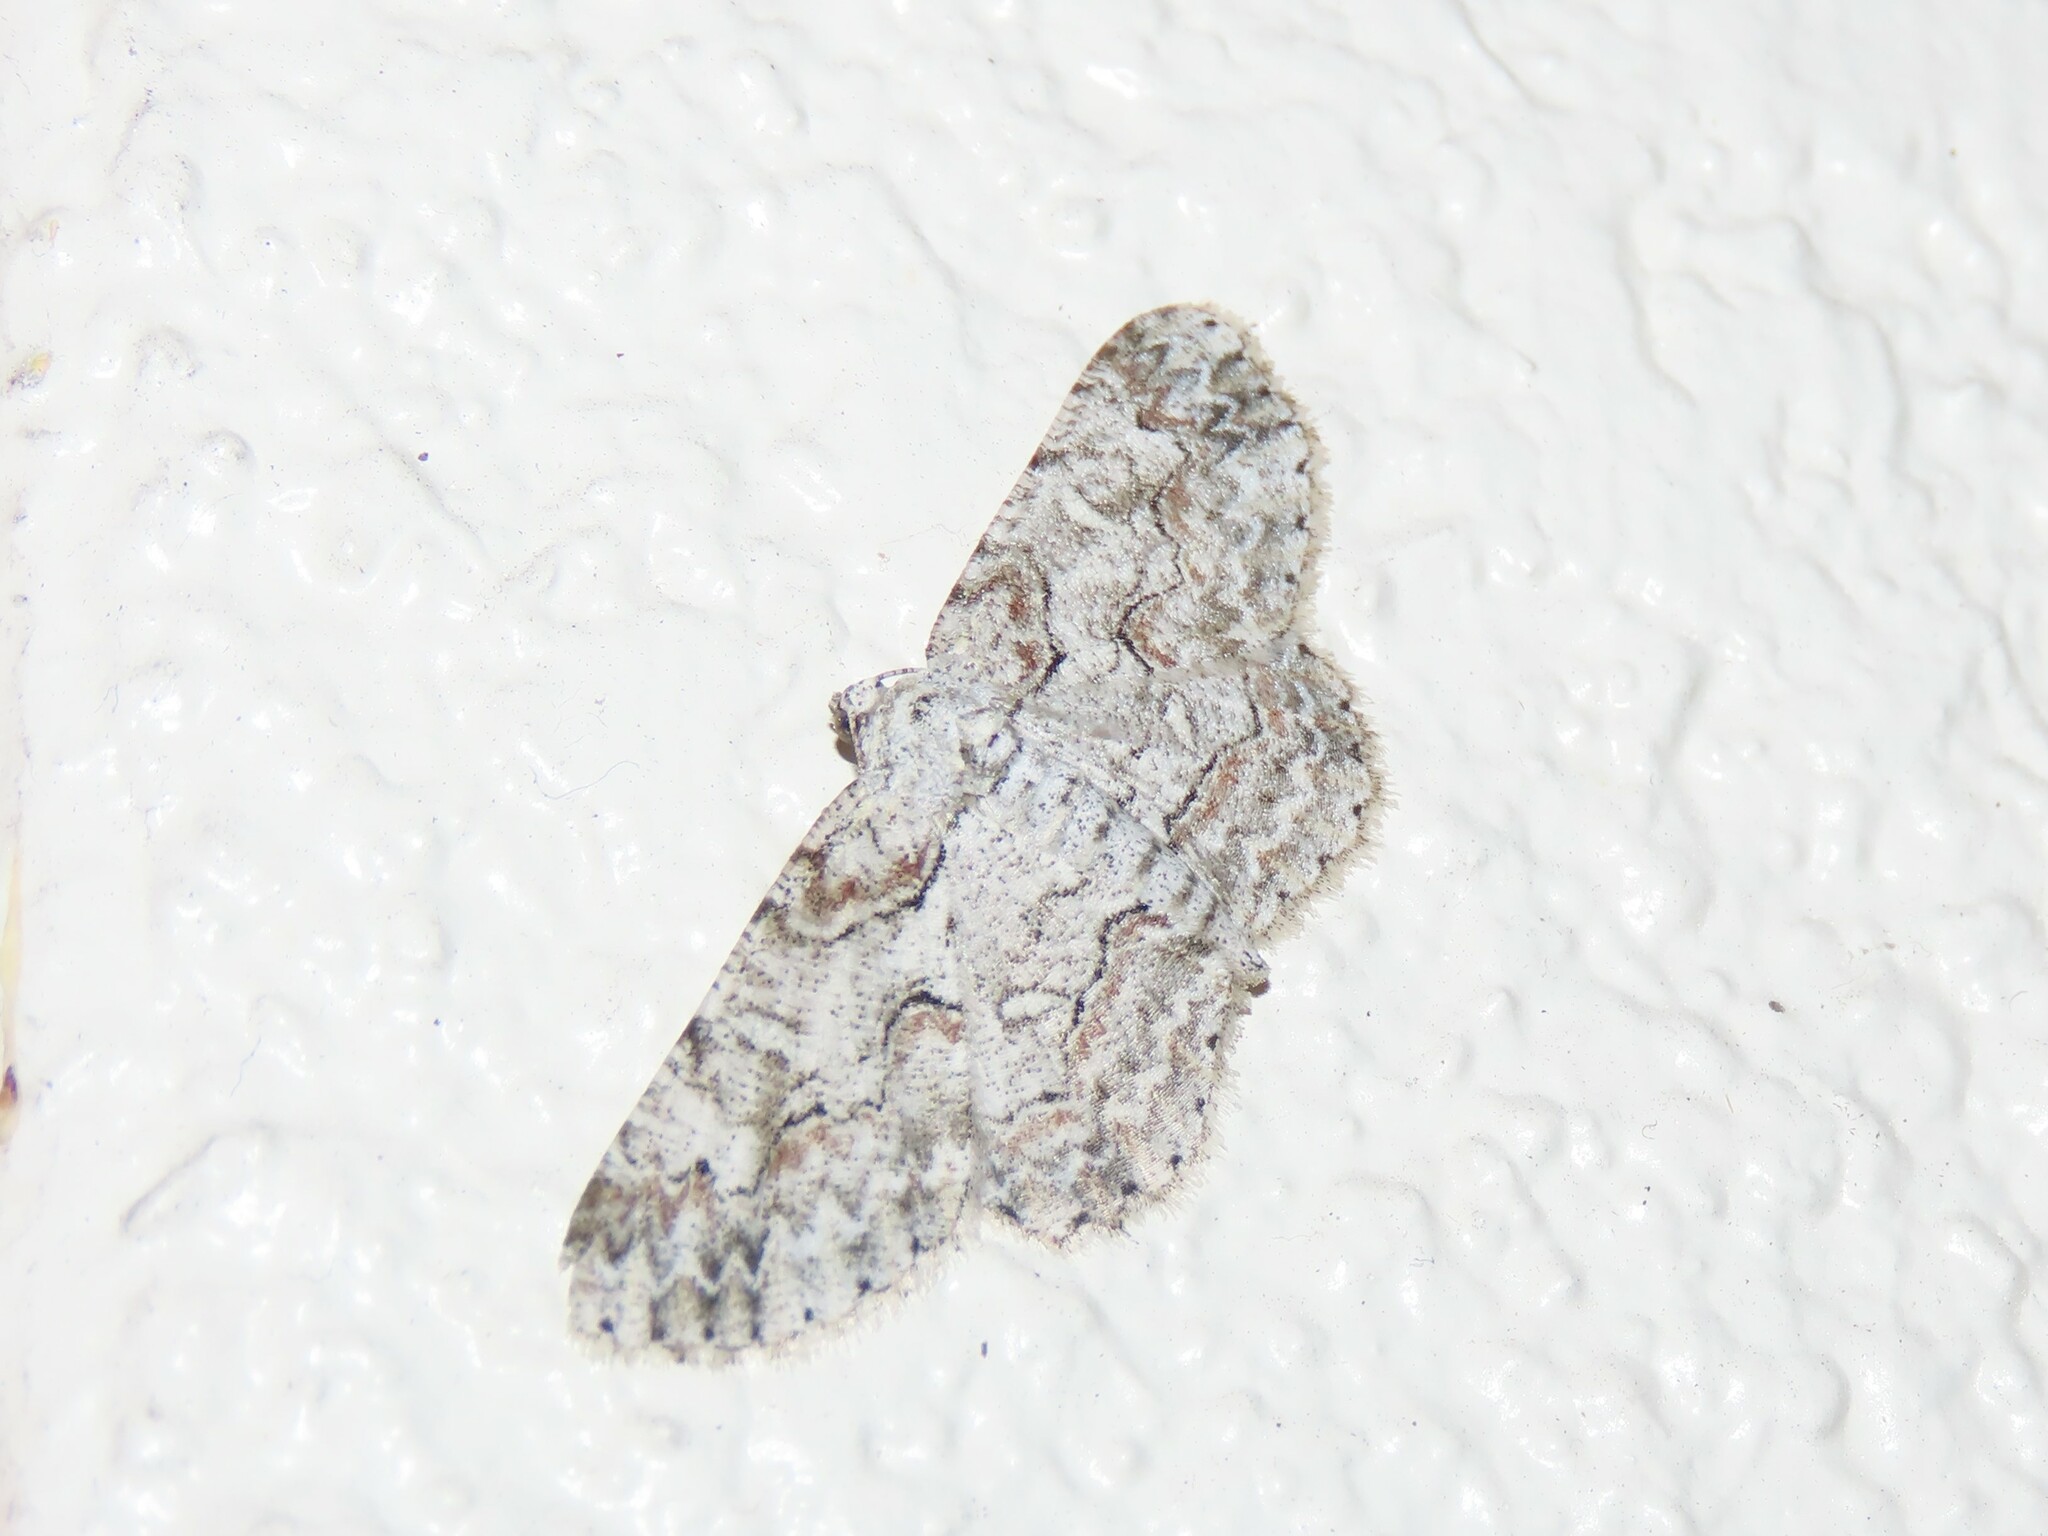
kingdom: Animalia
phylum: Arthropoda
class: Insecta
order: Lepidoptera
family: Geometridae
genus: Iridopsis
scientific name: Iridopsis defectaria
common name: Brown-shaded gray
